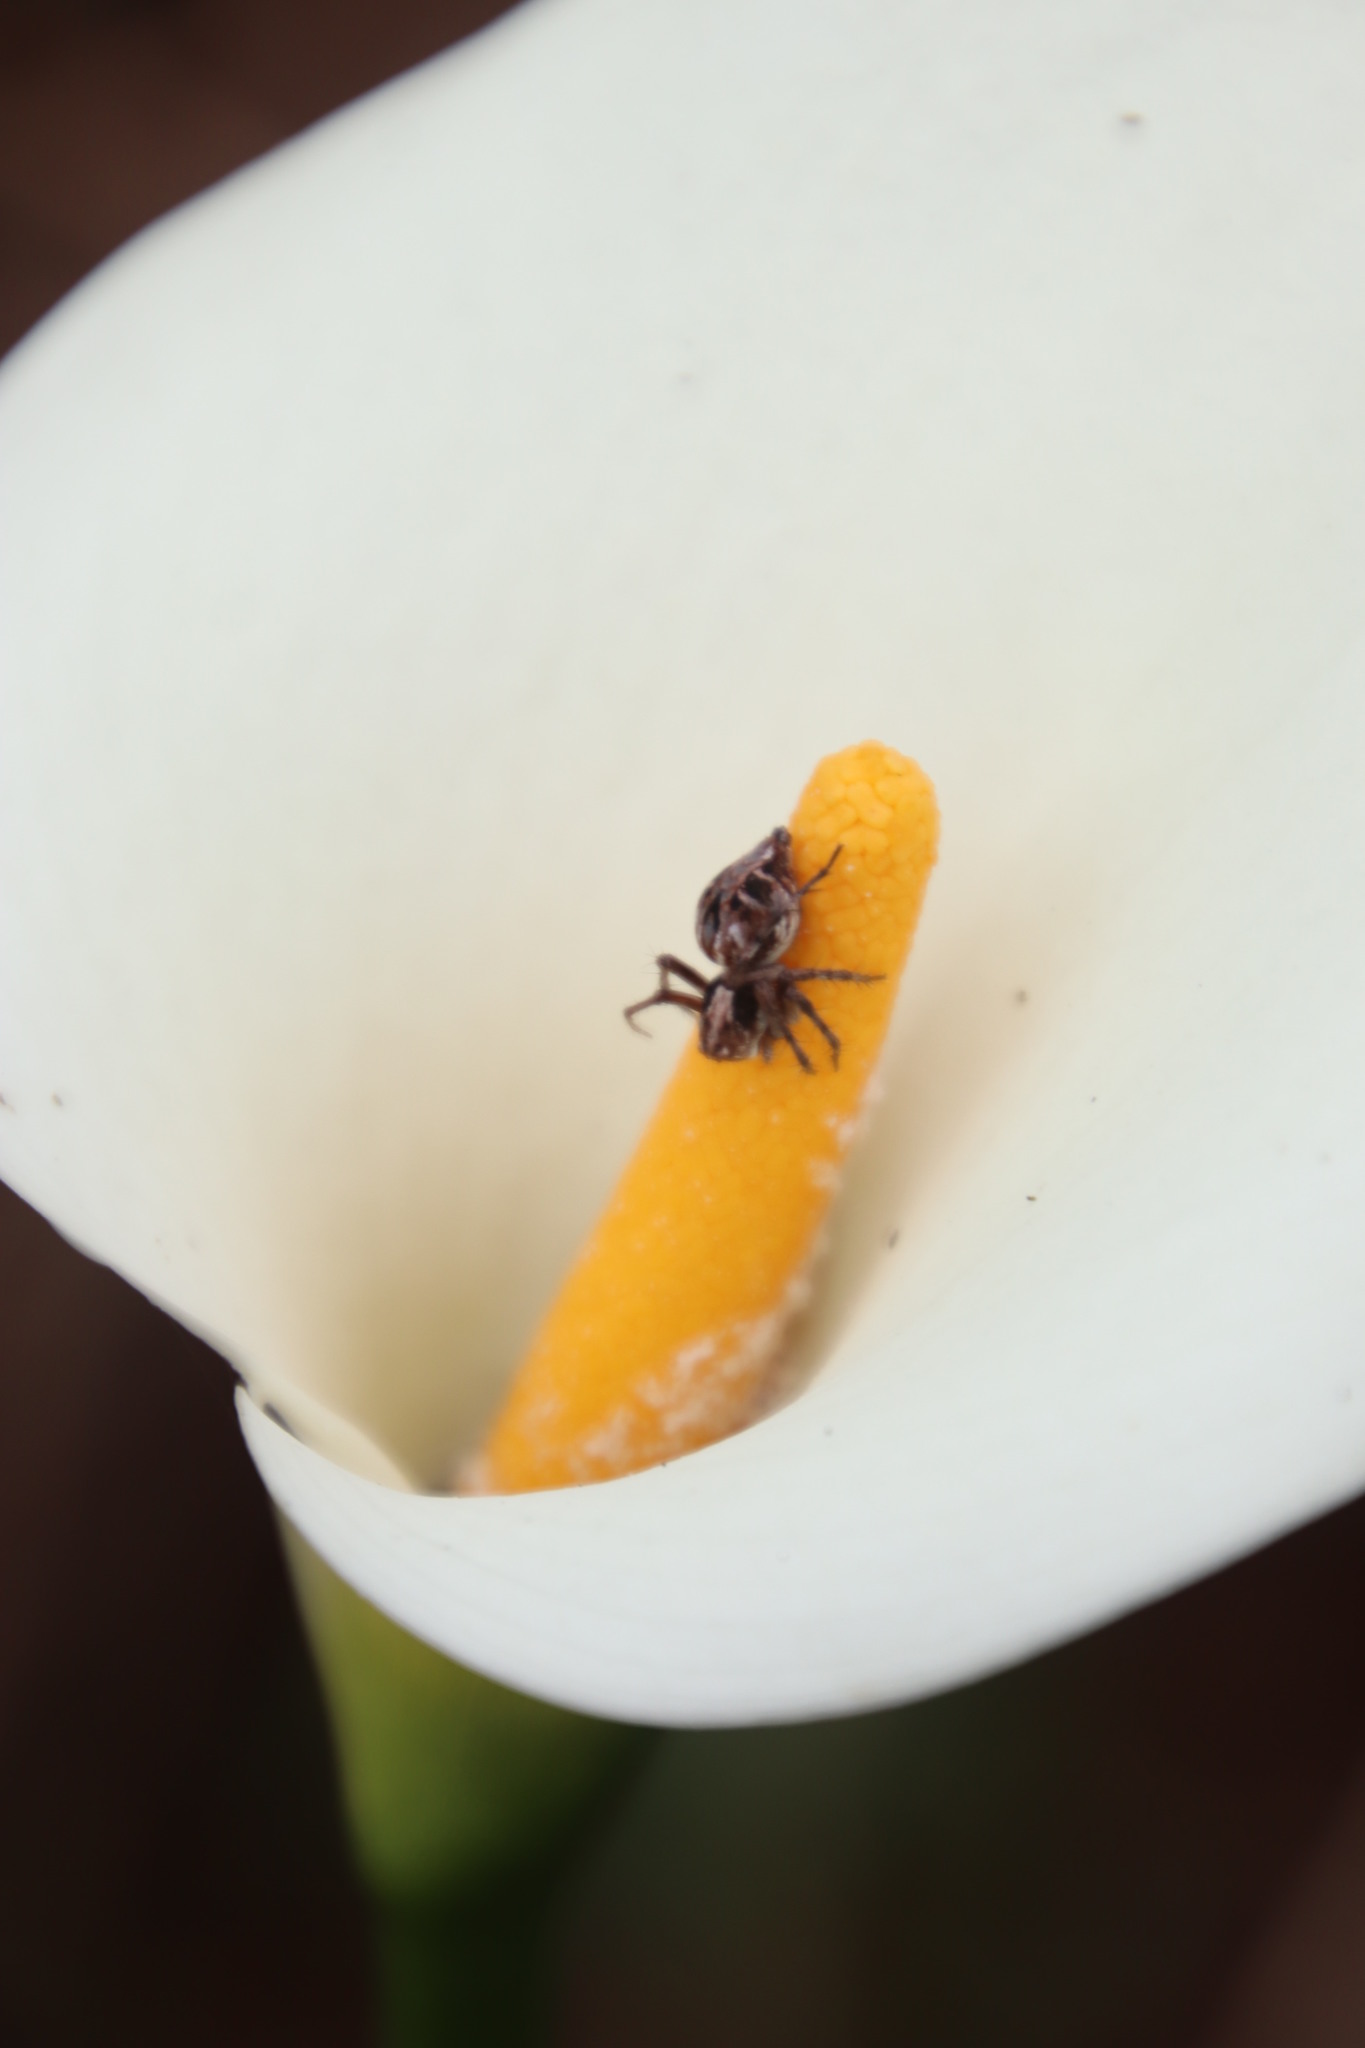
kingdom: Plantae
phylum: Tracheophyta
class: Liliopsida
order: Alismatales
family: Araceae
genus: Zantedeschia
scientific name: Zantedeschia aethiopica
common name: Altar-lily
